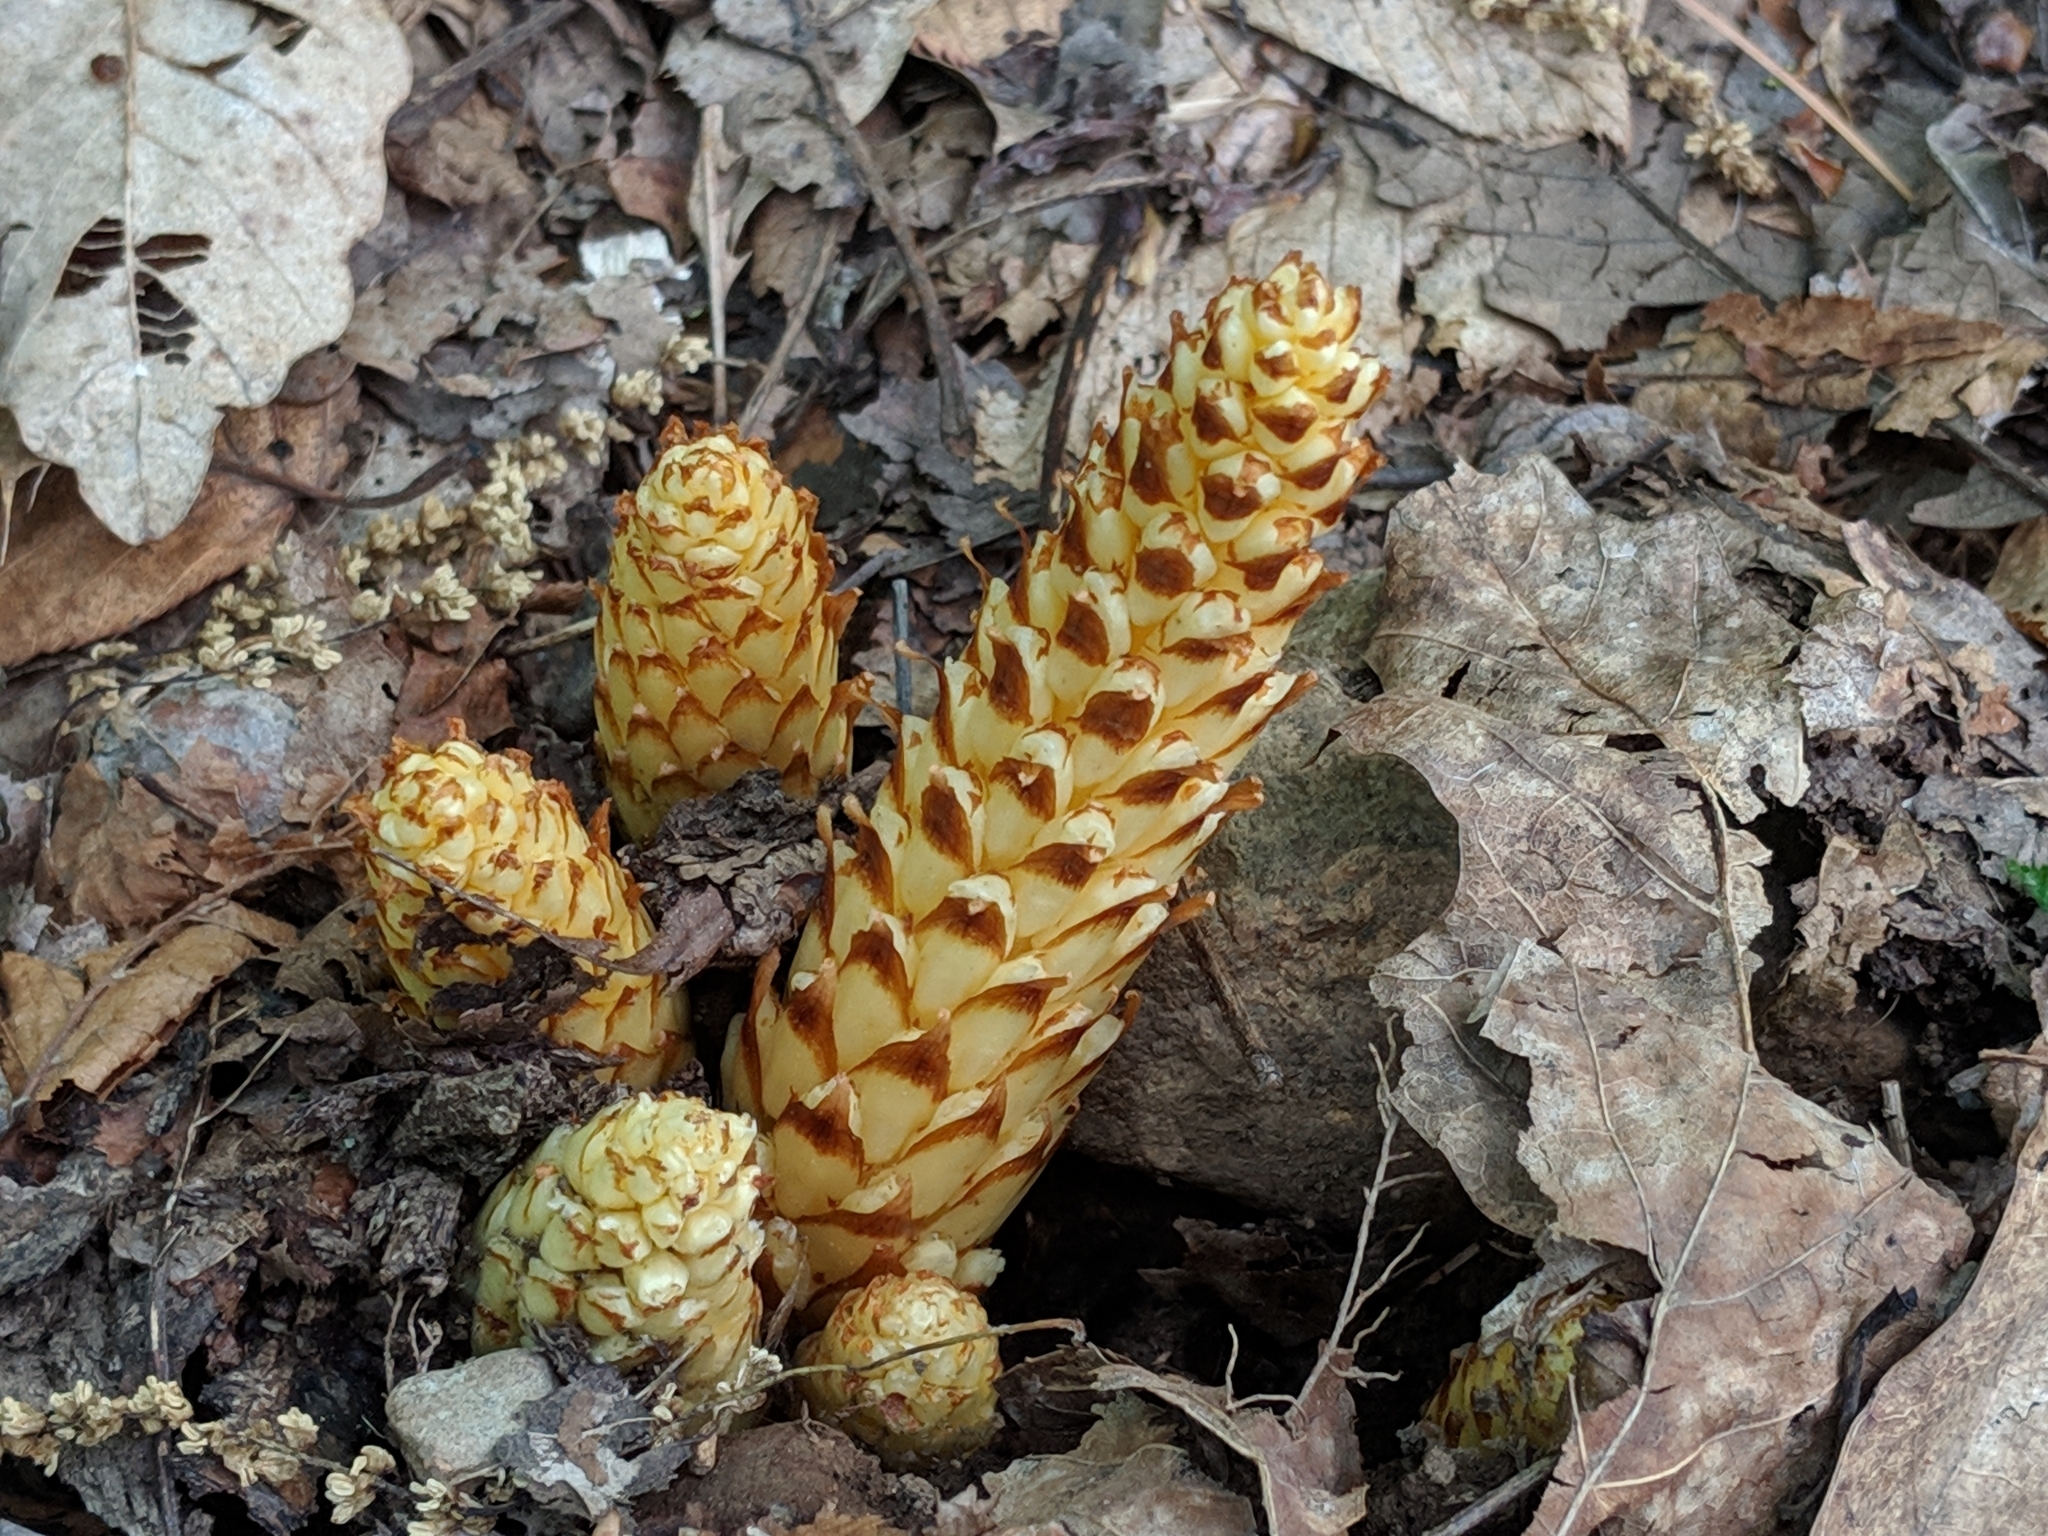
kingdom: Plantae
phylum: Tracheophyta
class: Magnoliopsida
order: Lamiales
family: Orobanchaceae
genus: Conopholis
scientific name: Conopholis americana
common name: American cancer-root
